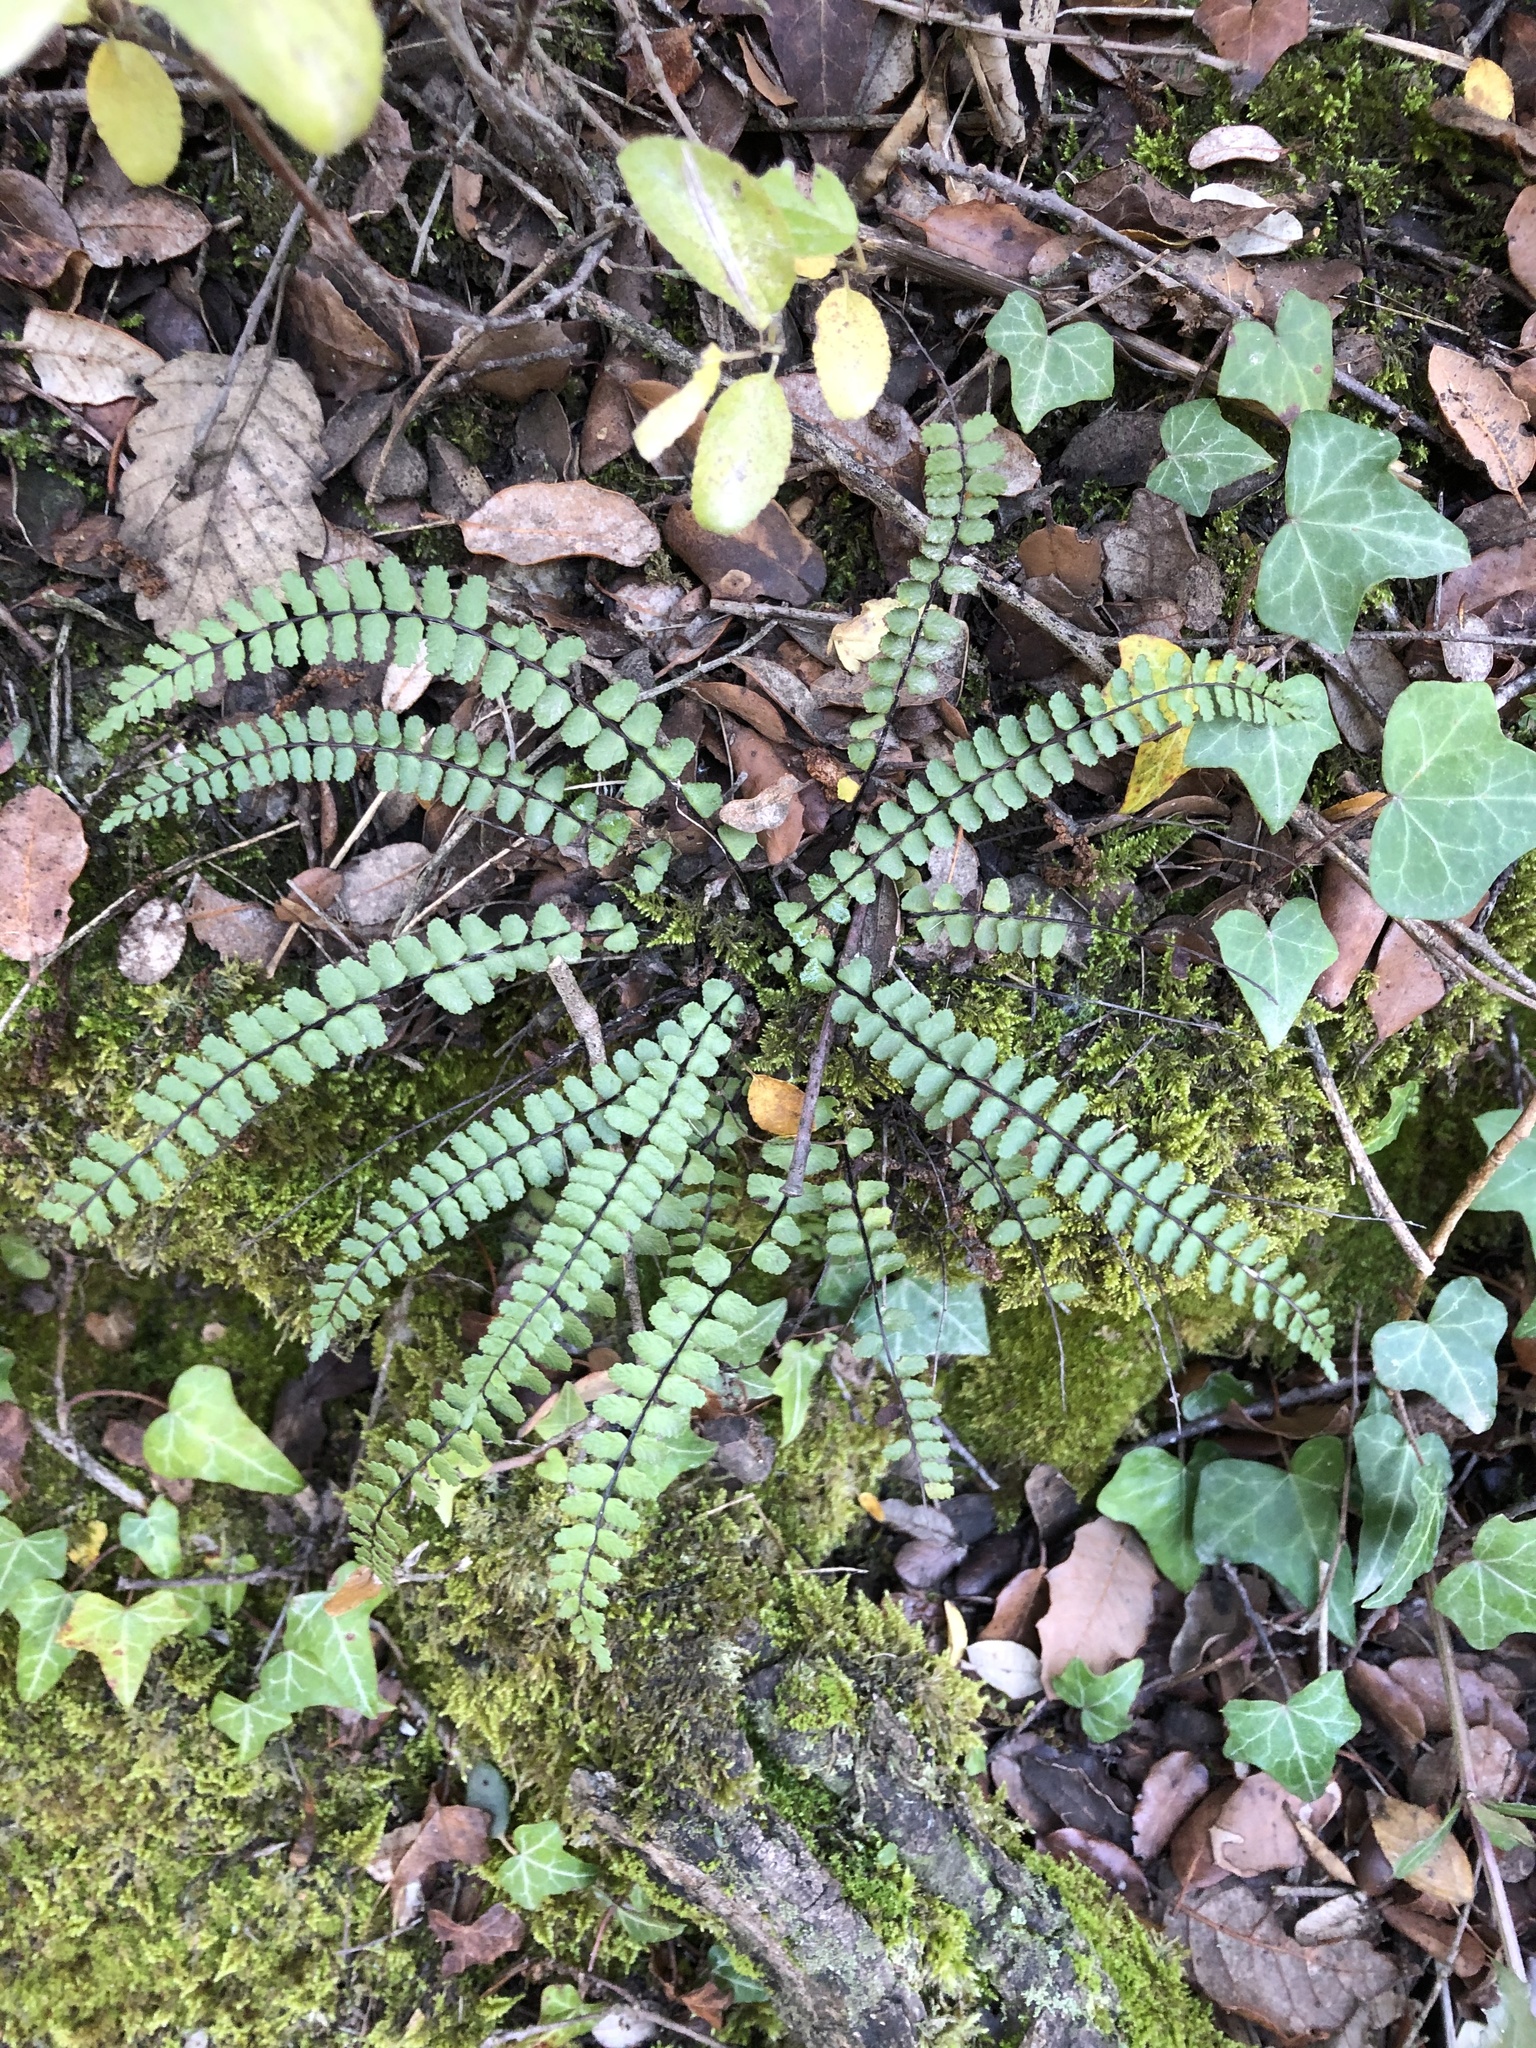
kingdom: Plantae
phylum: Tracheophyta
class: Polypodiopsida
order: Polypodiales
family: Aspleniaceae
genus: Asplenium
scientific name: Asplenium trichomanes
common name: Maidenhair spleenwort
